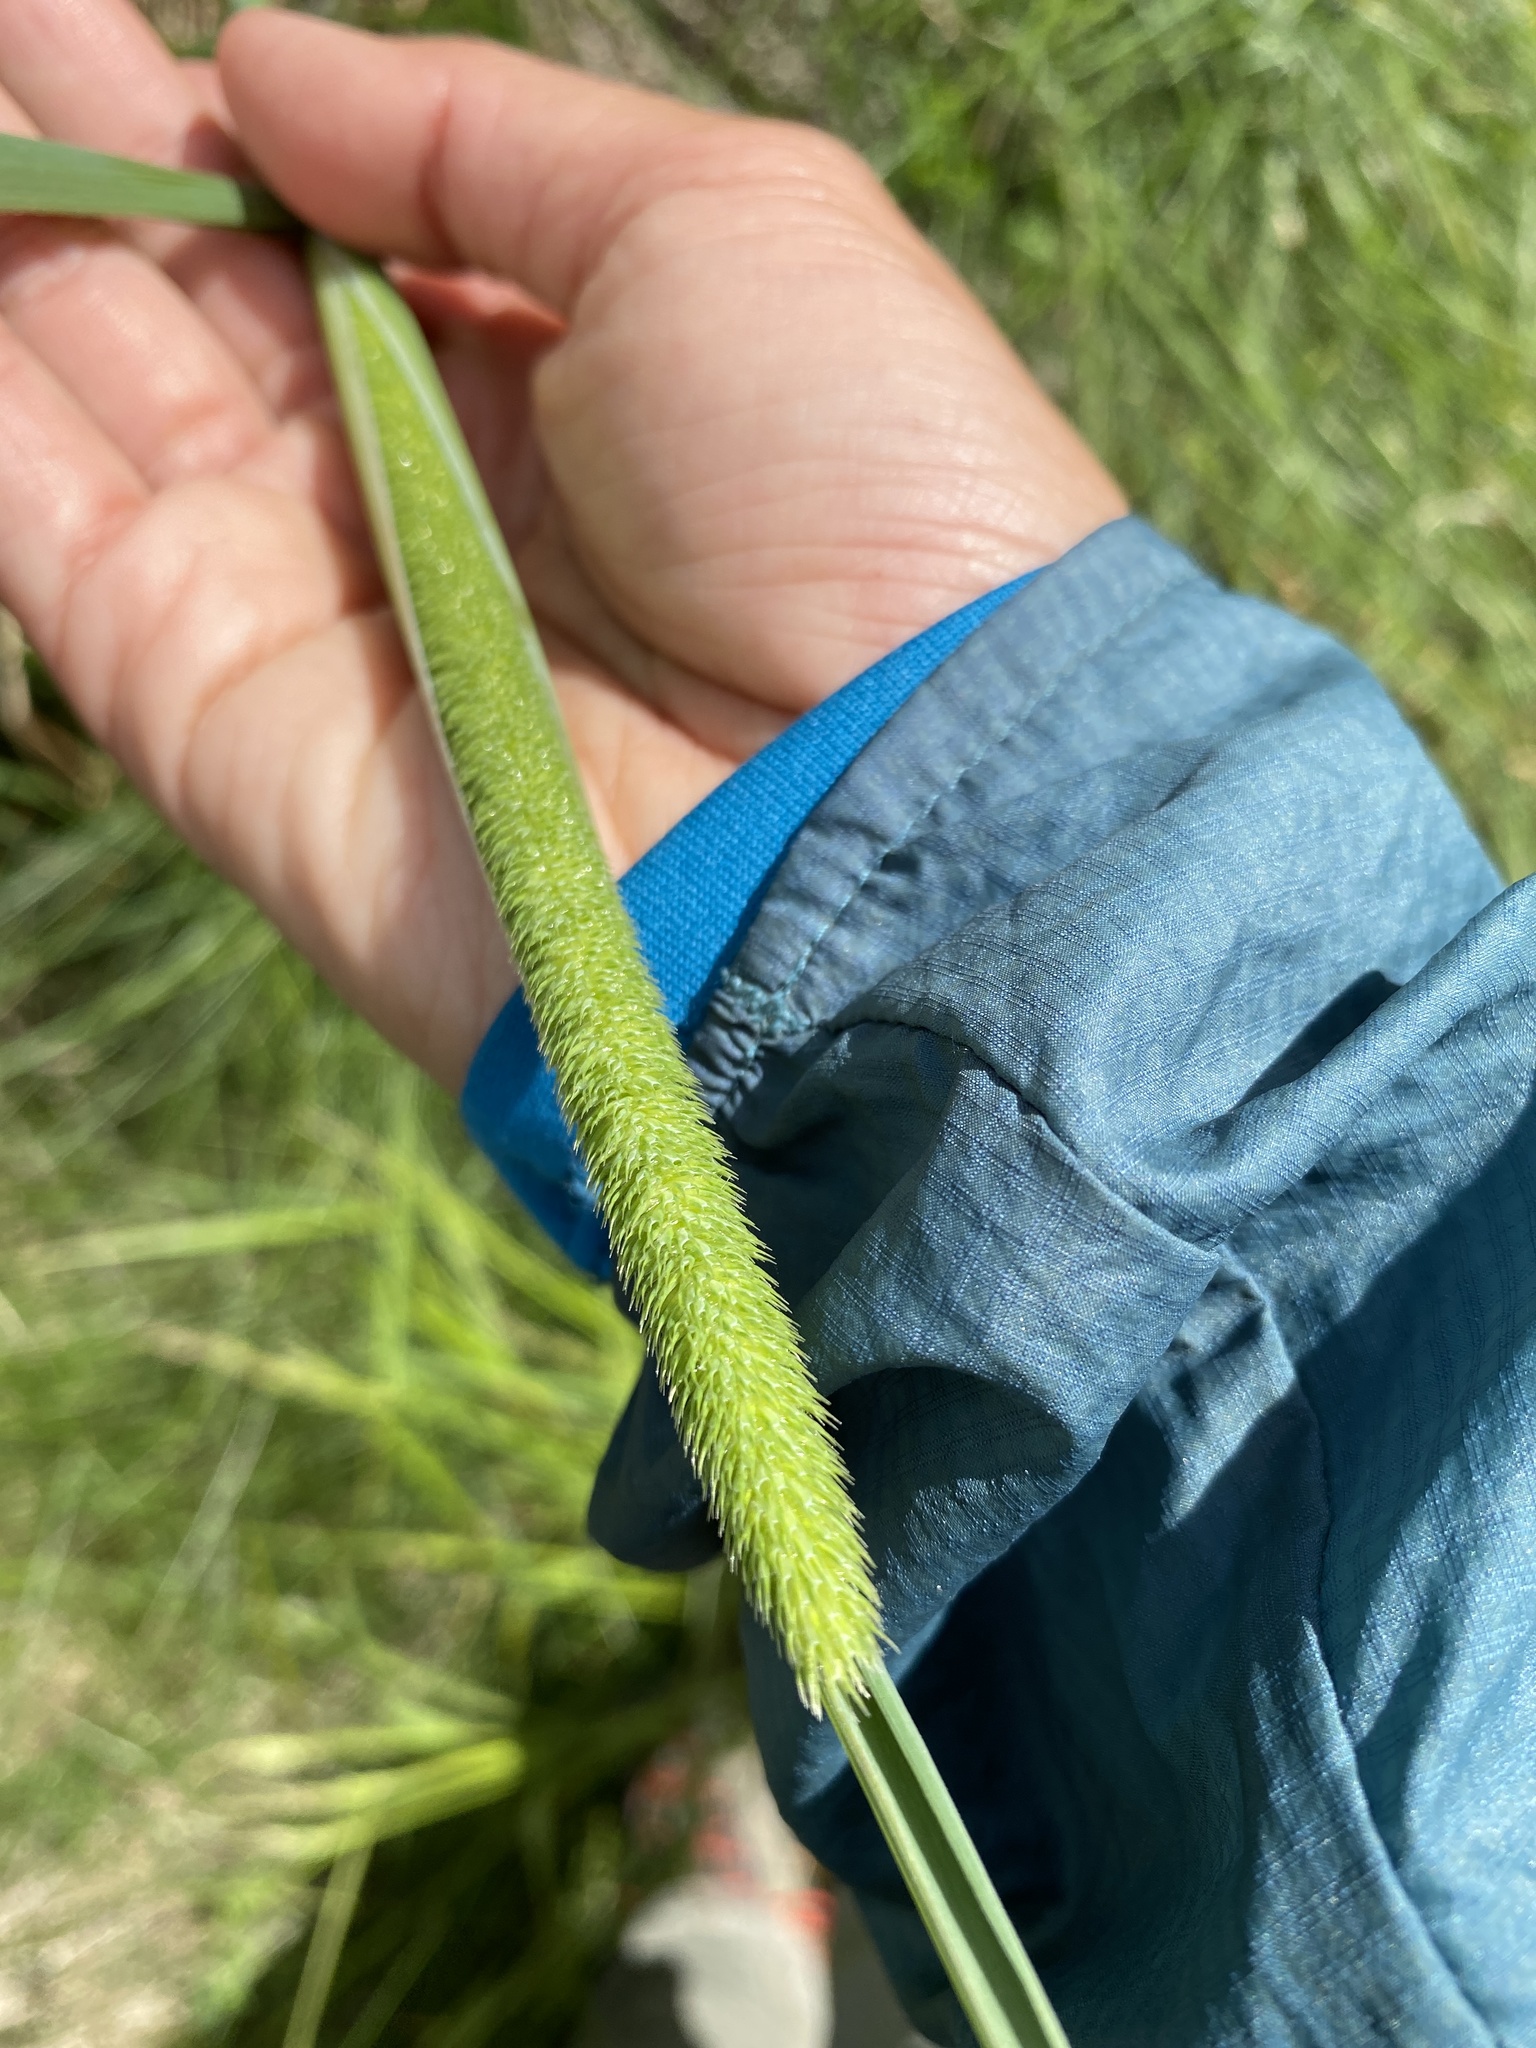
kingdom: Plantae
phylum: Tracheophyta
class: Liliopsida
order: Poales
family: Poaceae
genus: Phleum
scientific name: Phleum pratense
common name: Timothy grass
